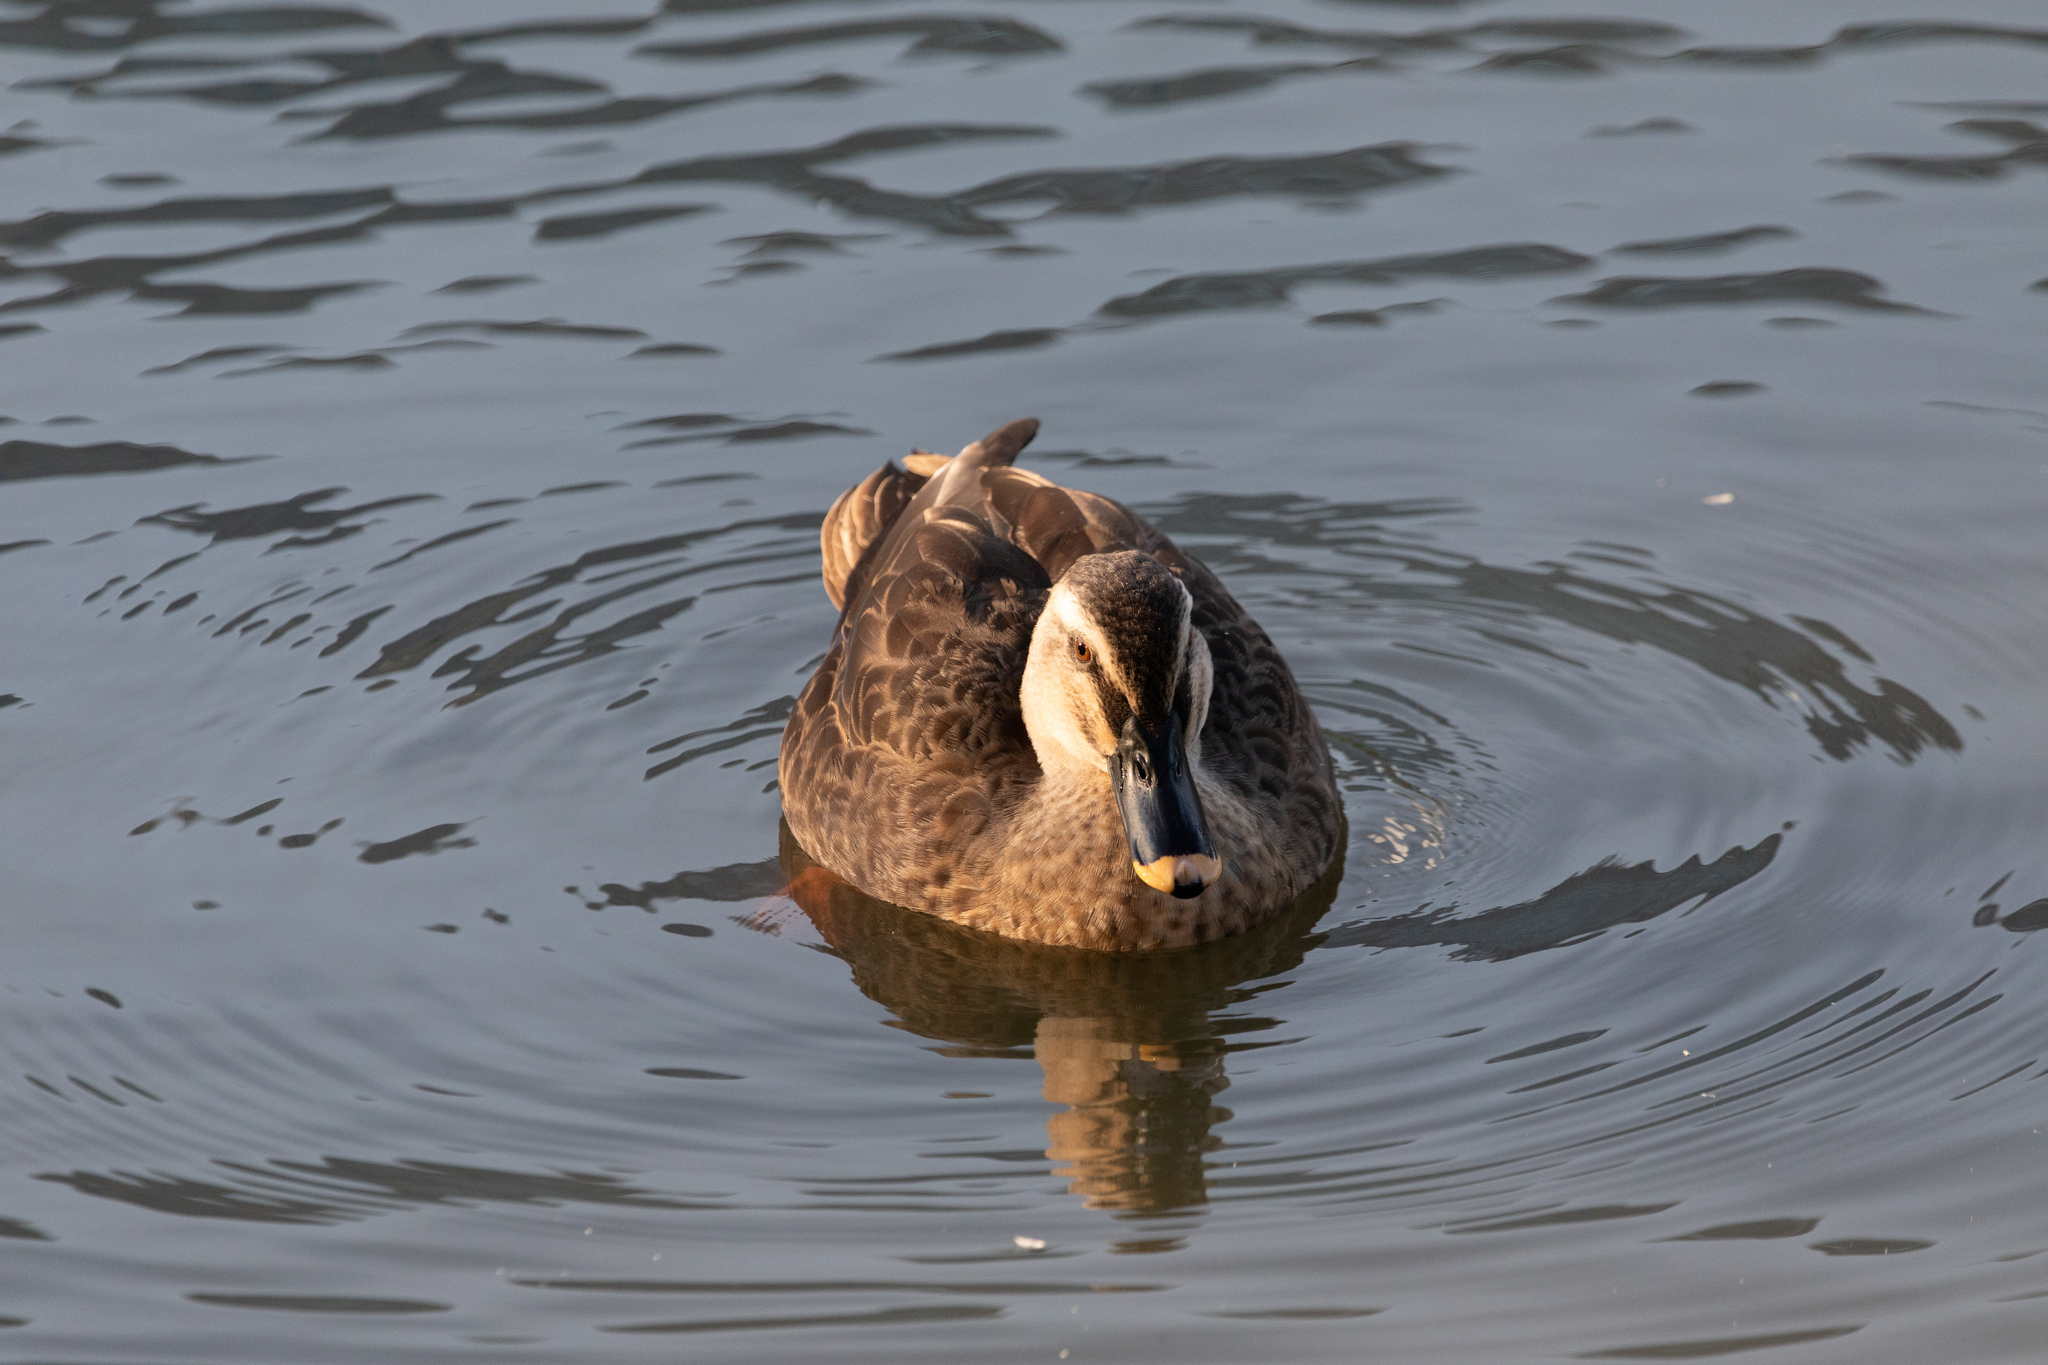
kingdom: Animalia
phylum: Chordata
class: Aves
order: Anseriformes
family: Anatidae
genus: Anas
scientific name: Anas zonorhyncha
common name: Eastern spot-billed duck
